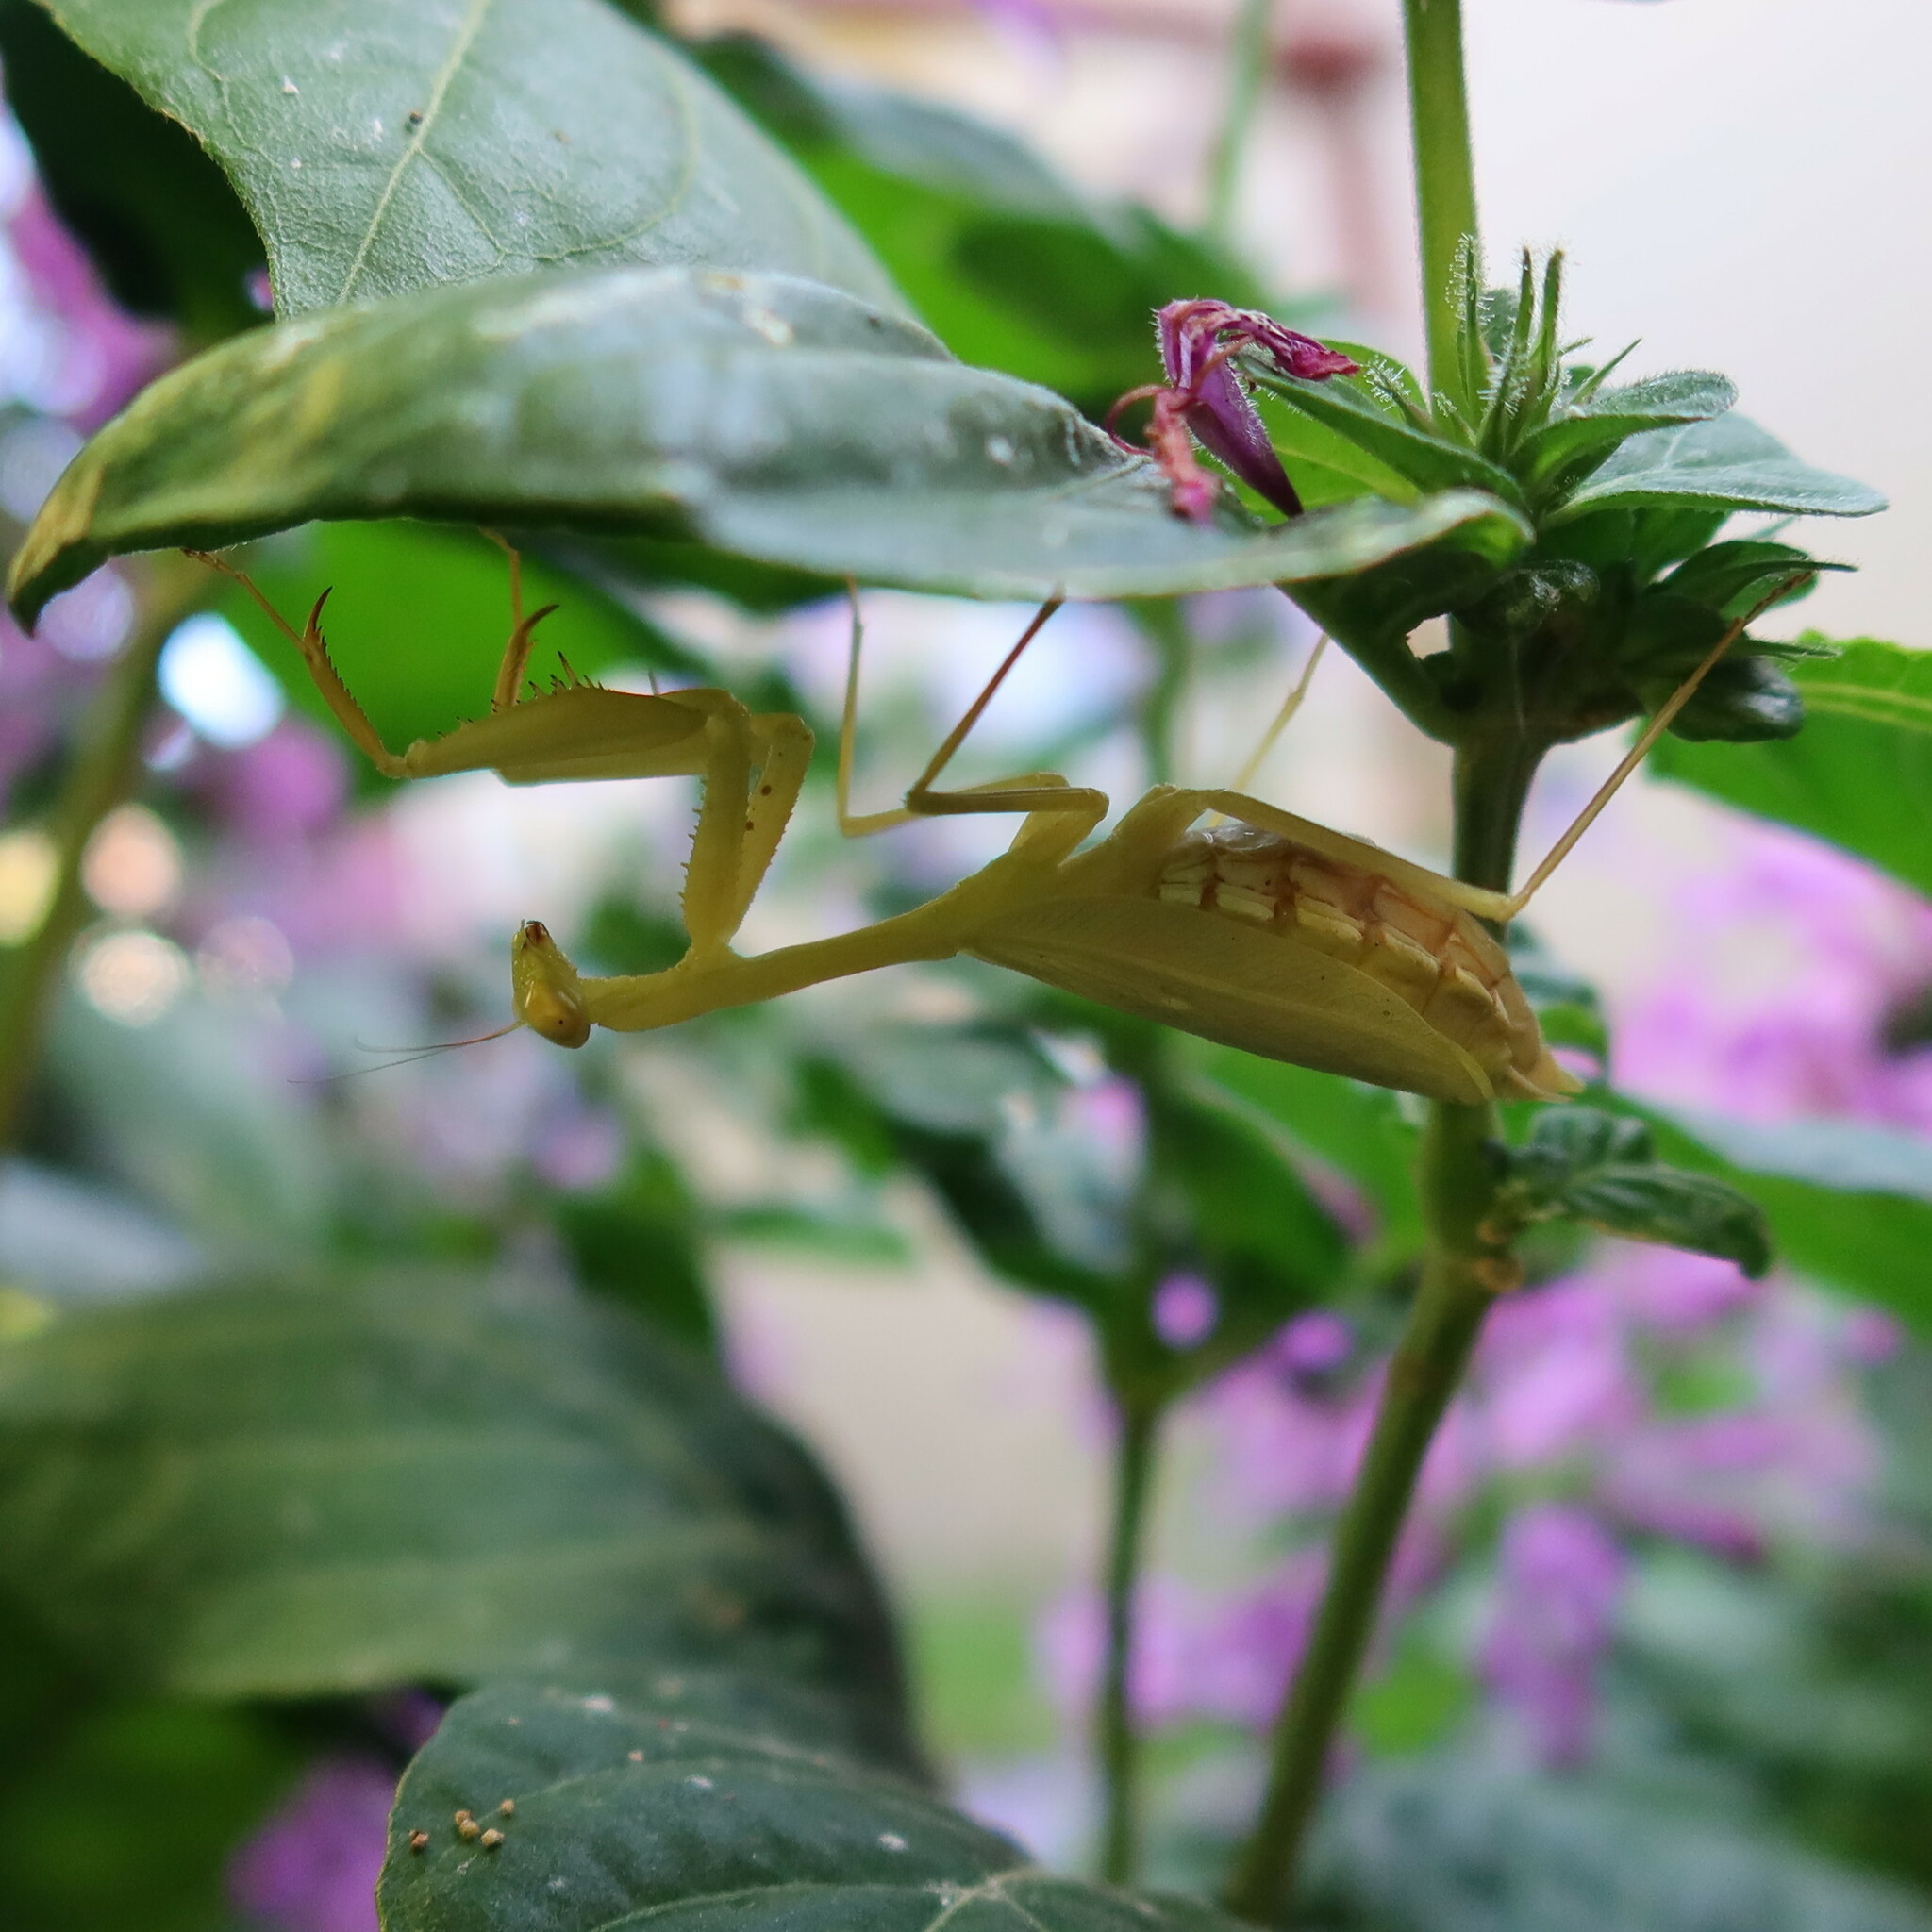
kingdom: Animalia
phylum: Arthropoda
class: Insecta
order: Mantodea
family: Miomantidae
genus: Miomantis
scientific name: Miomantis caffra
